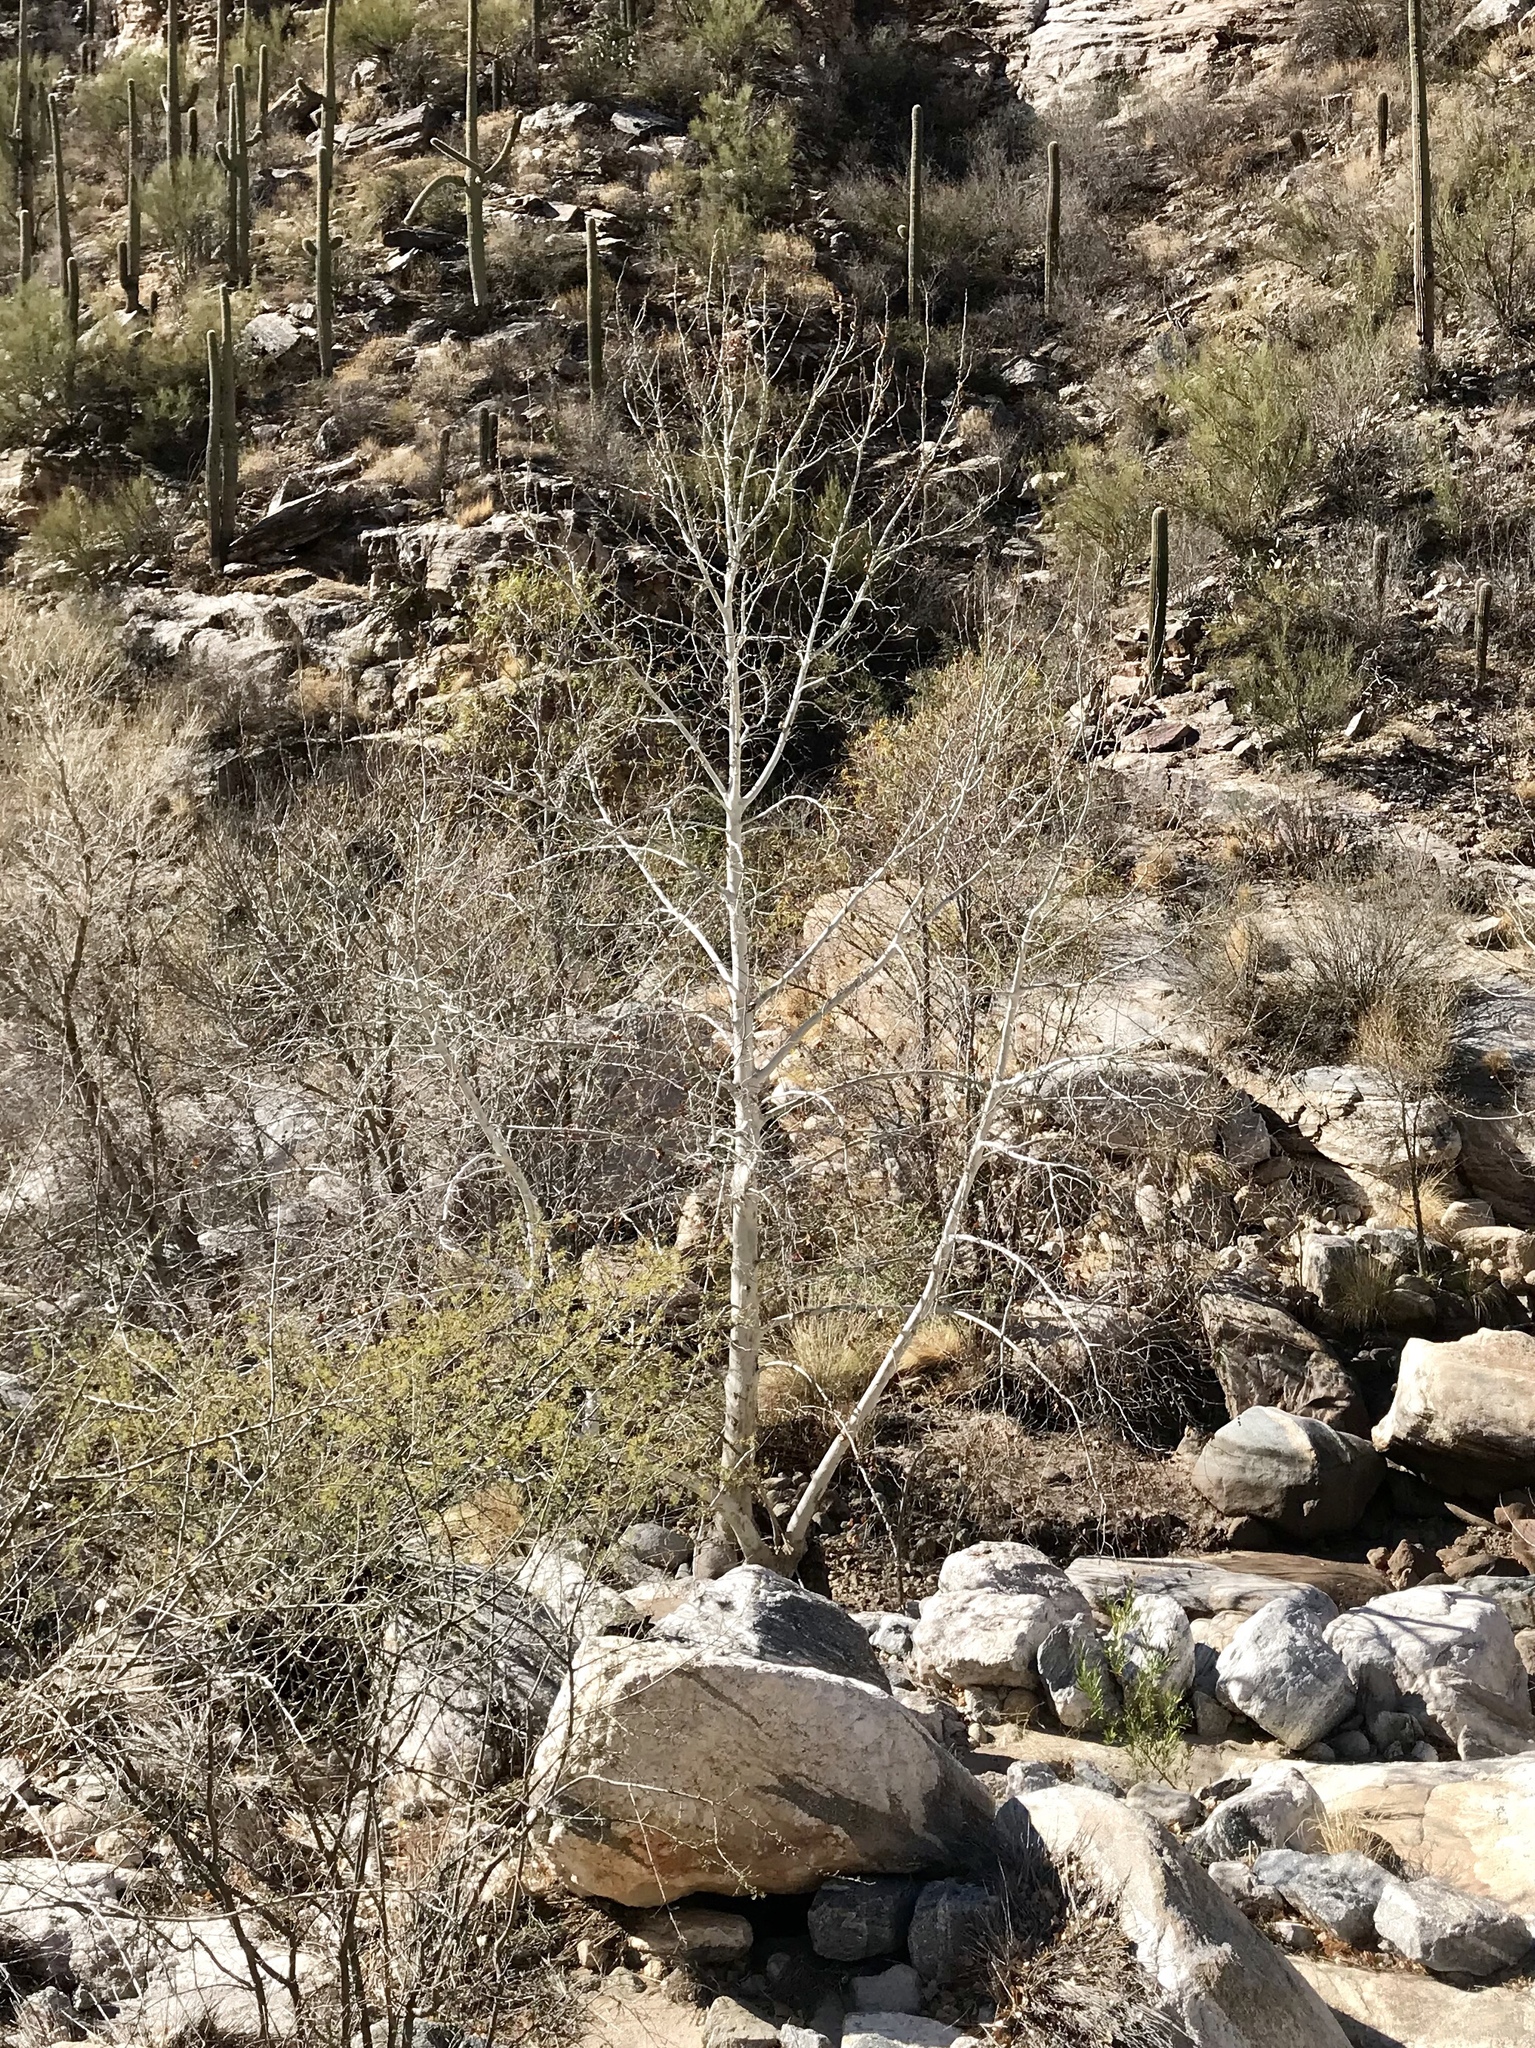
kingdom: Plantae
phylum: Tracheophyta
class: Magnoliopsida
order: Proteales
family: Platanaceae
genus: Platanus
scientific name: Platanus wrightii
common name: Arizona sycamore
